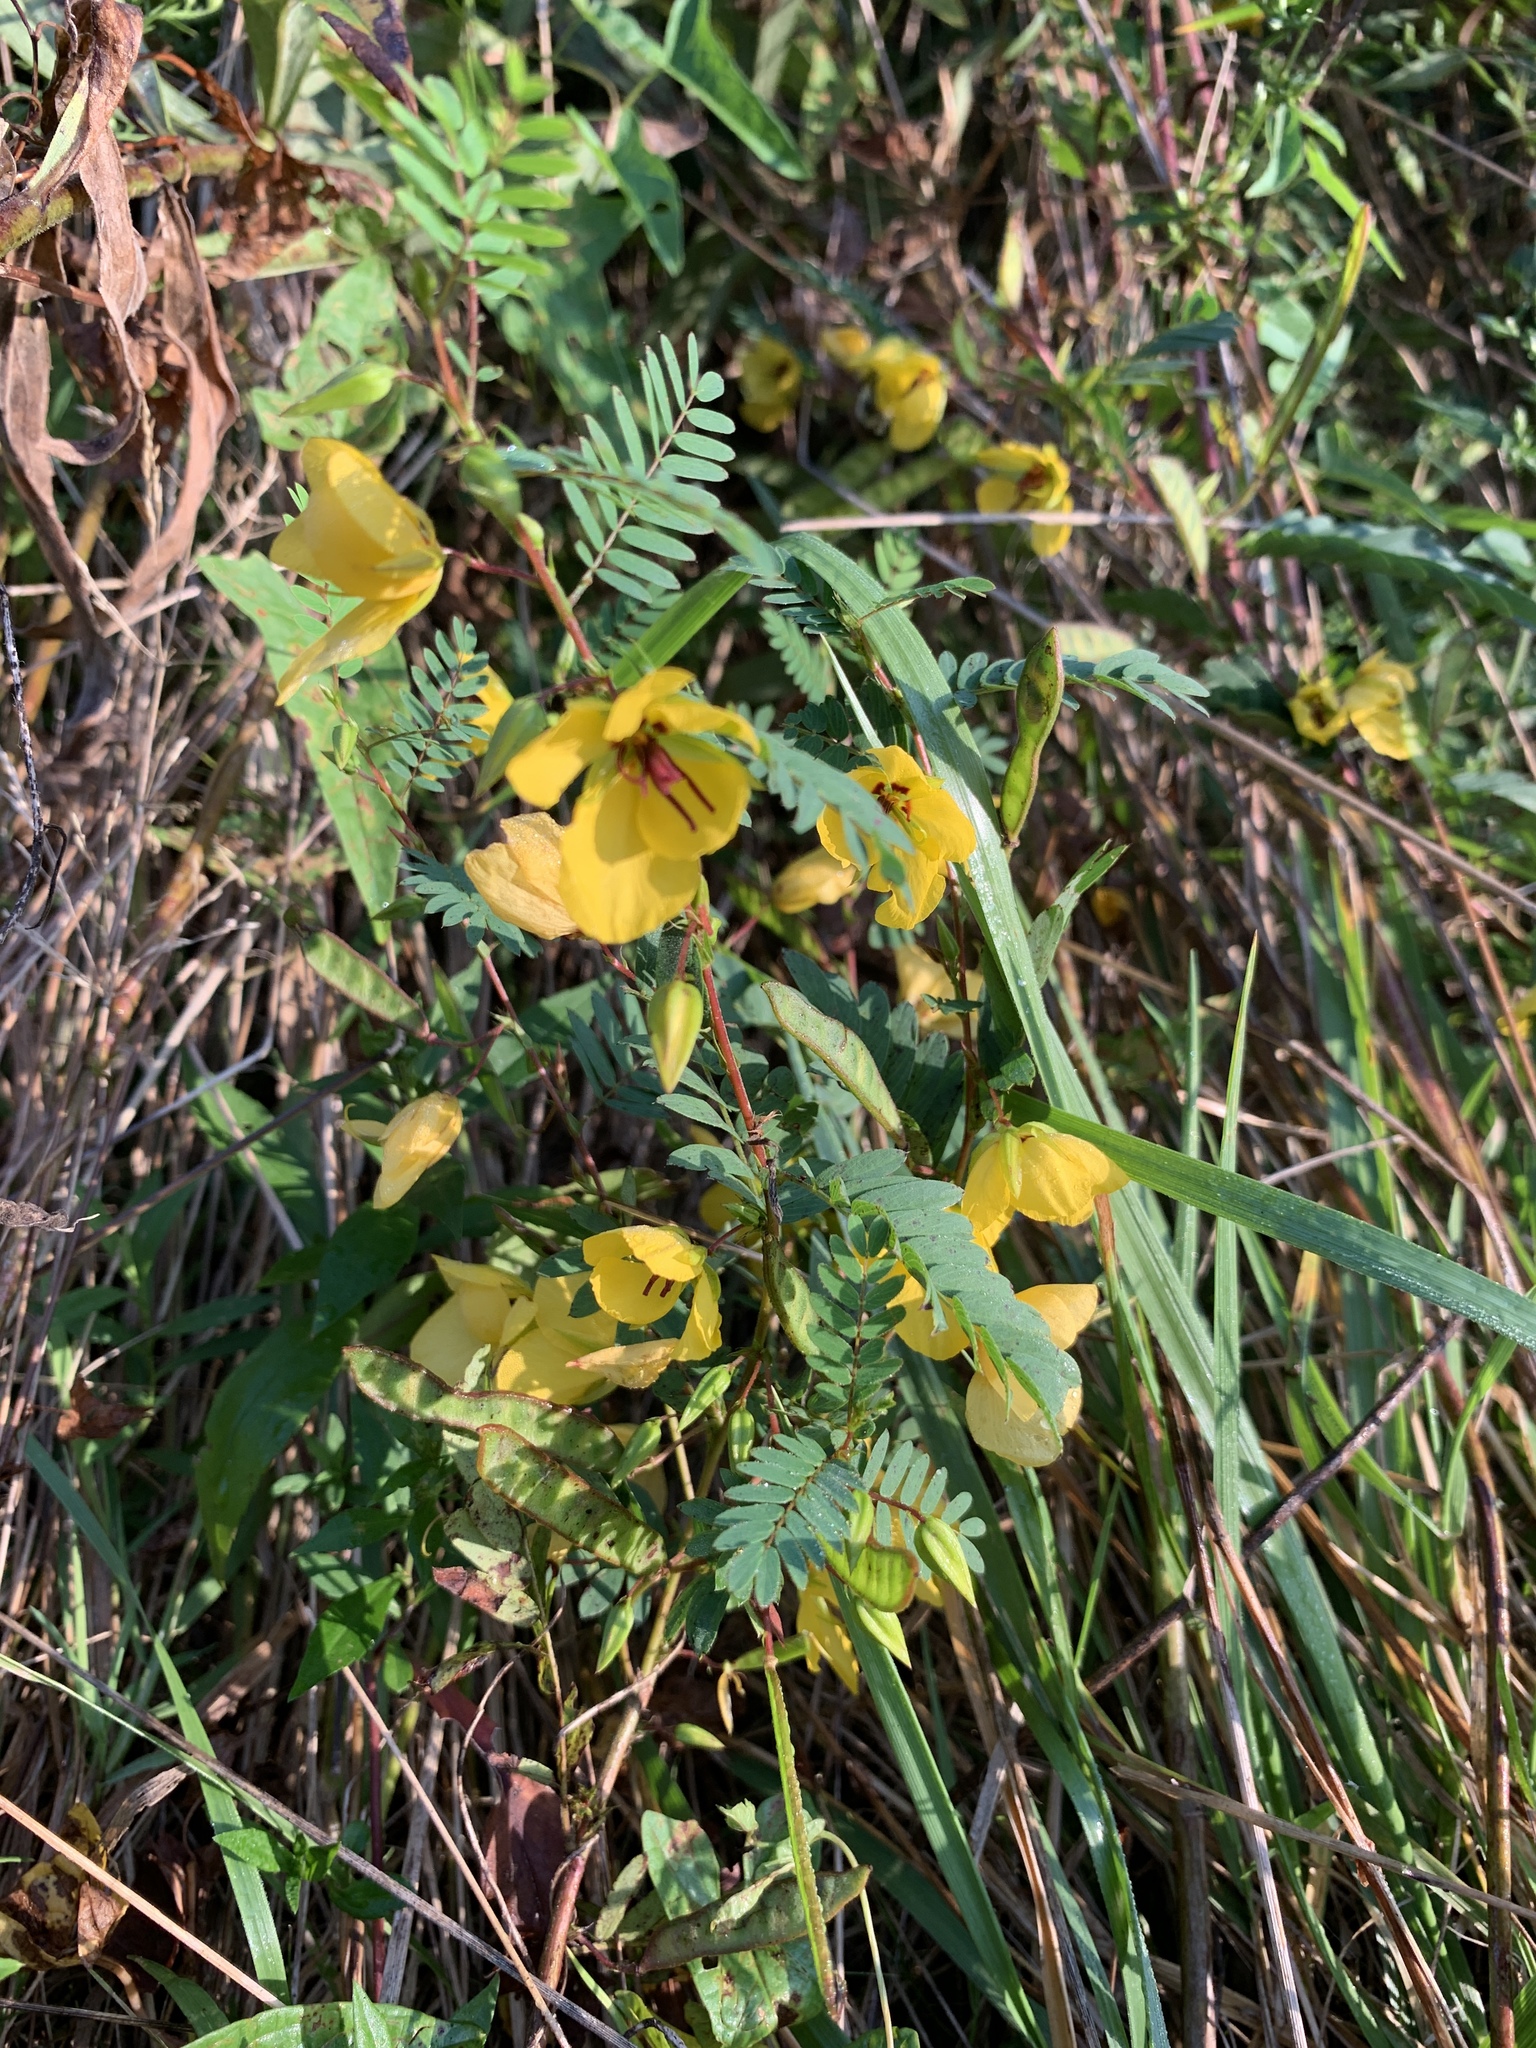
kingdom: Plantae
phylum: Tracheophyta
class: Magnoliopsida
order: Fabales
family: Fabaceae
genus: Chamaecrista
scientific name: Chamaecrista fasciculata
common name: Golden cassia
